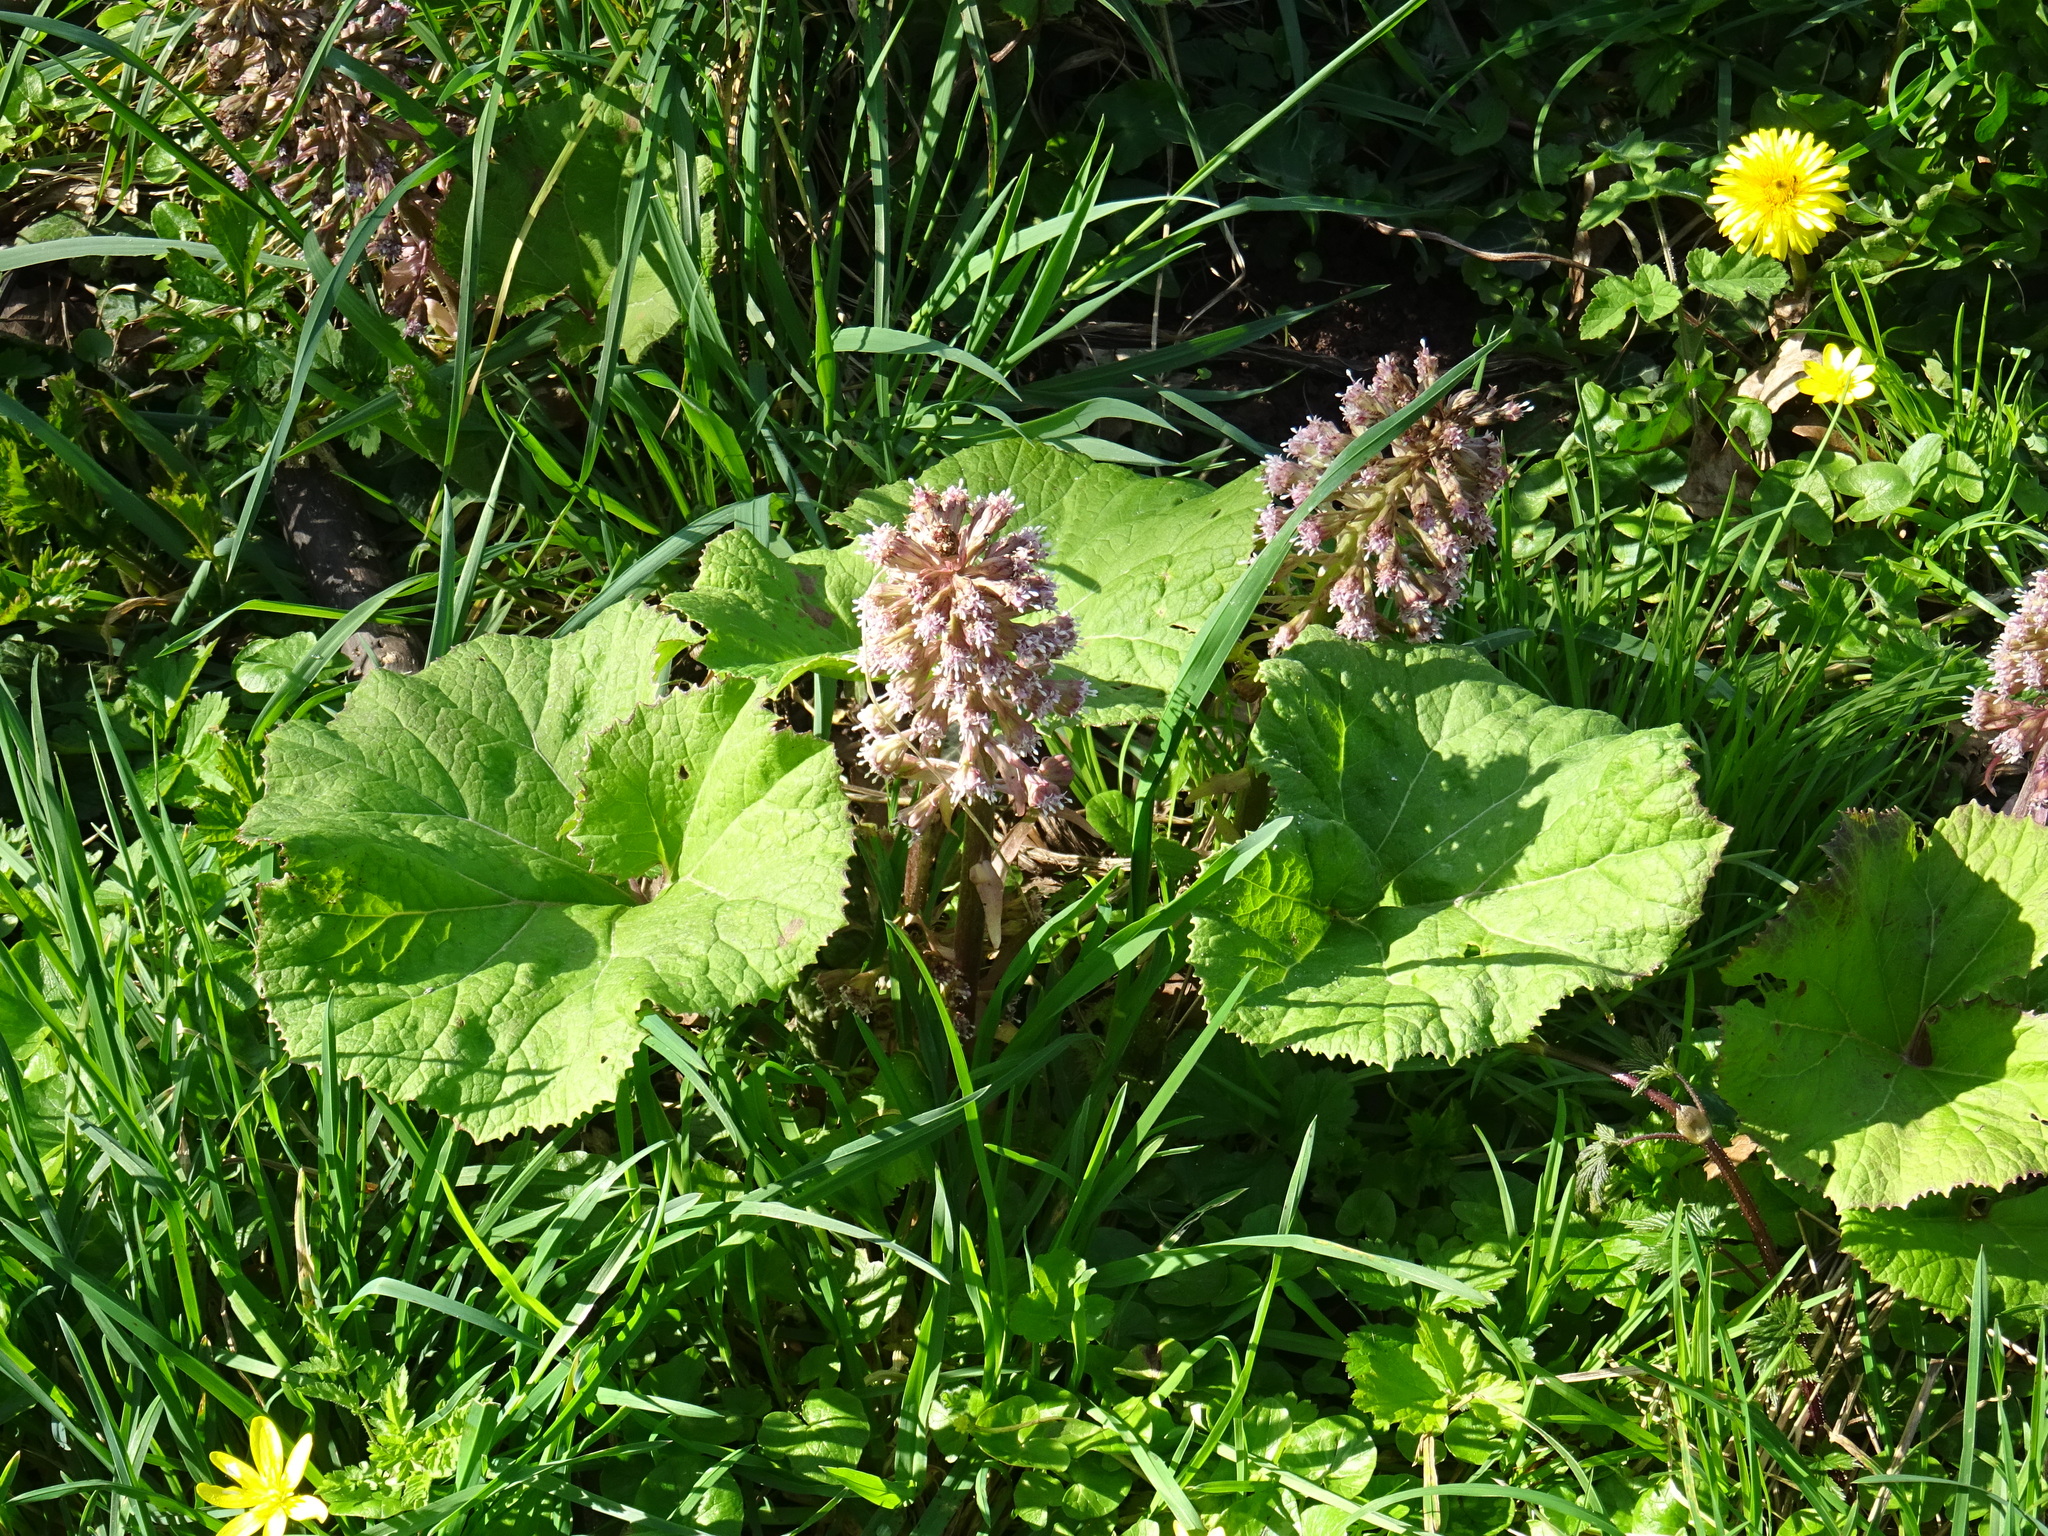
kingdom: Plantae
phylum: Tracheophyta
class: Magnoliopsida
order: Asterales
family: Asteraceae
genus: Petasites
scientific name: Petasites hybridus
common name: Butterbur
